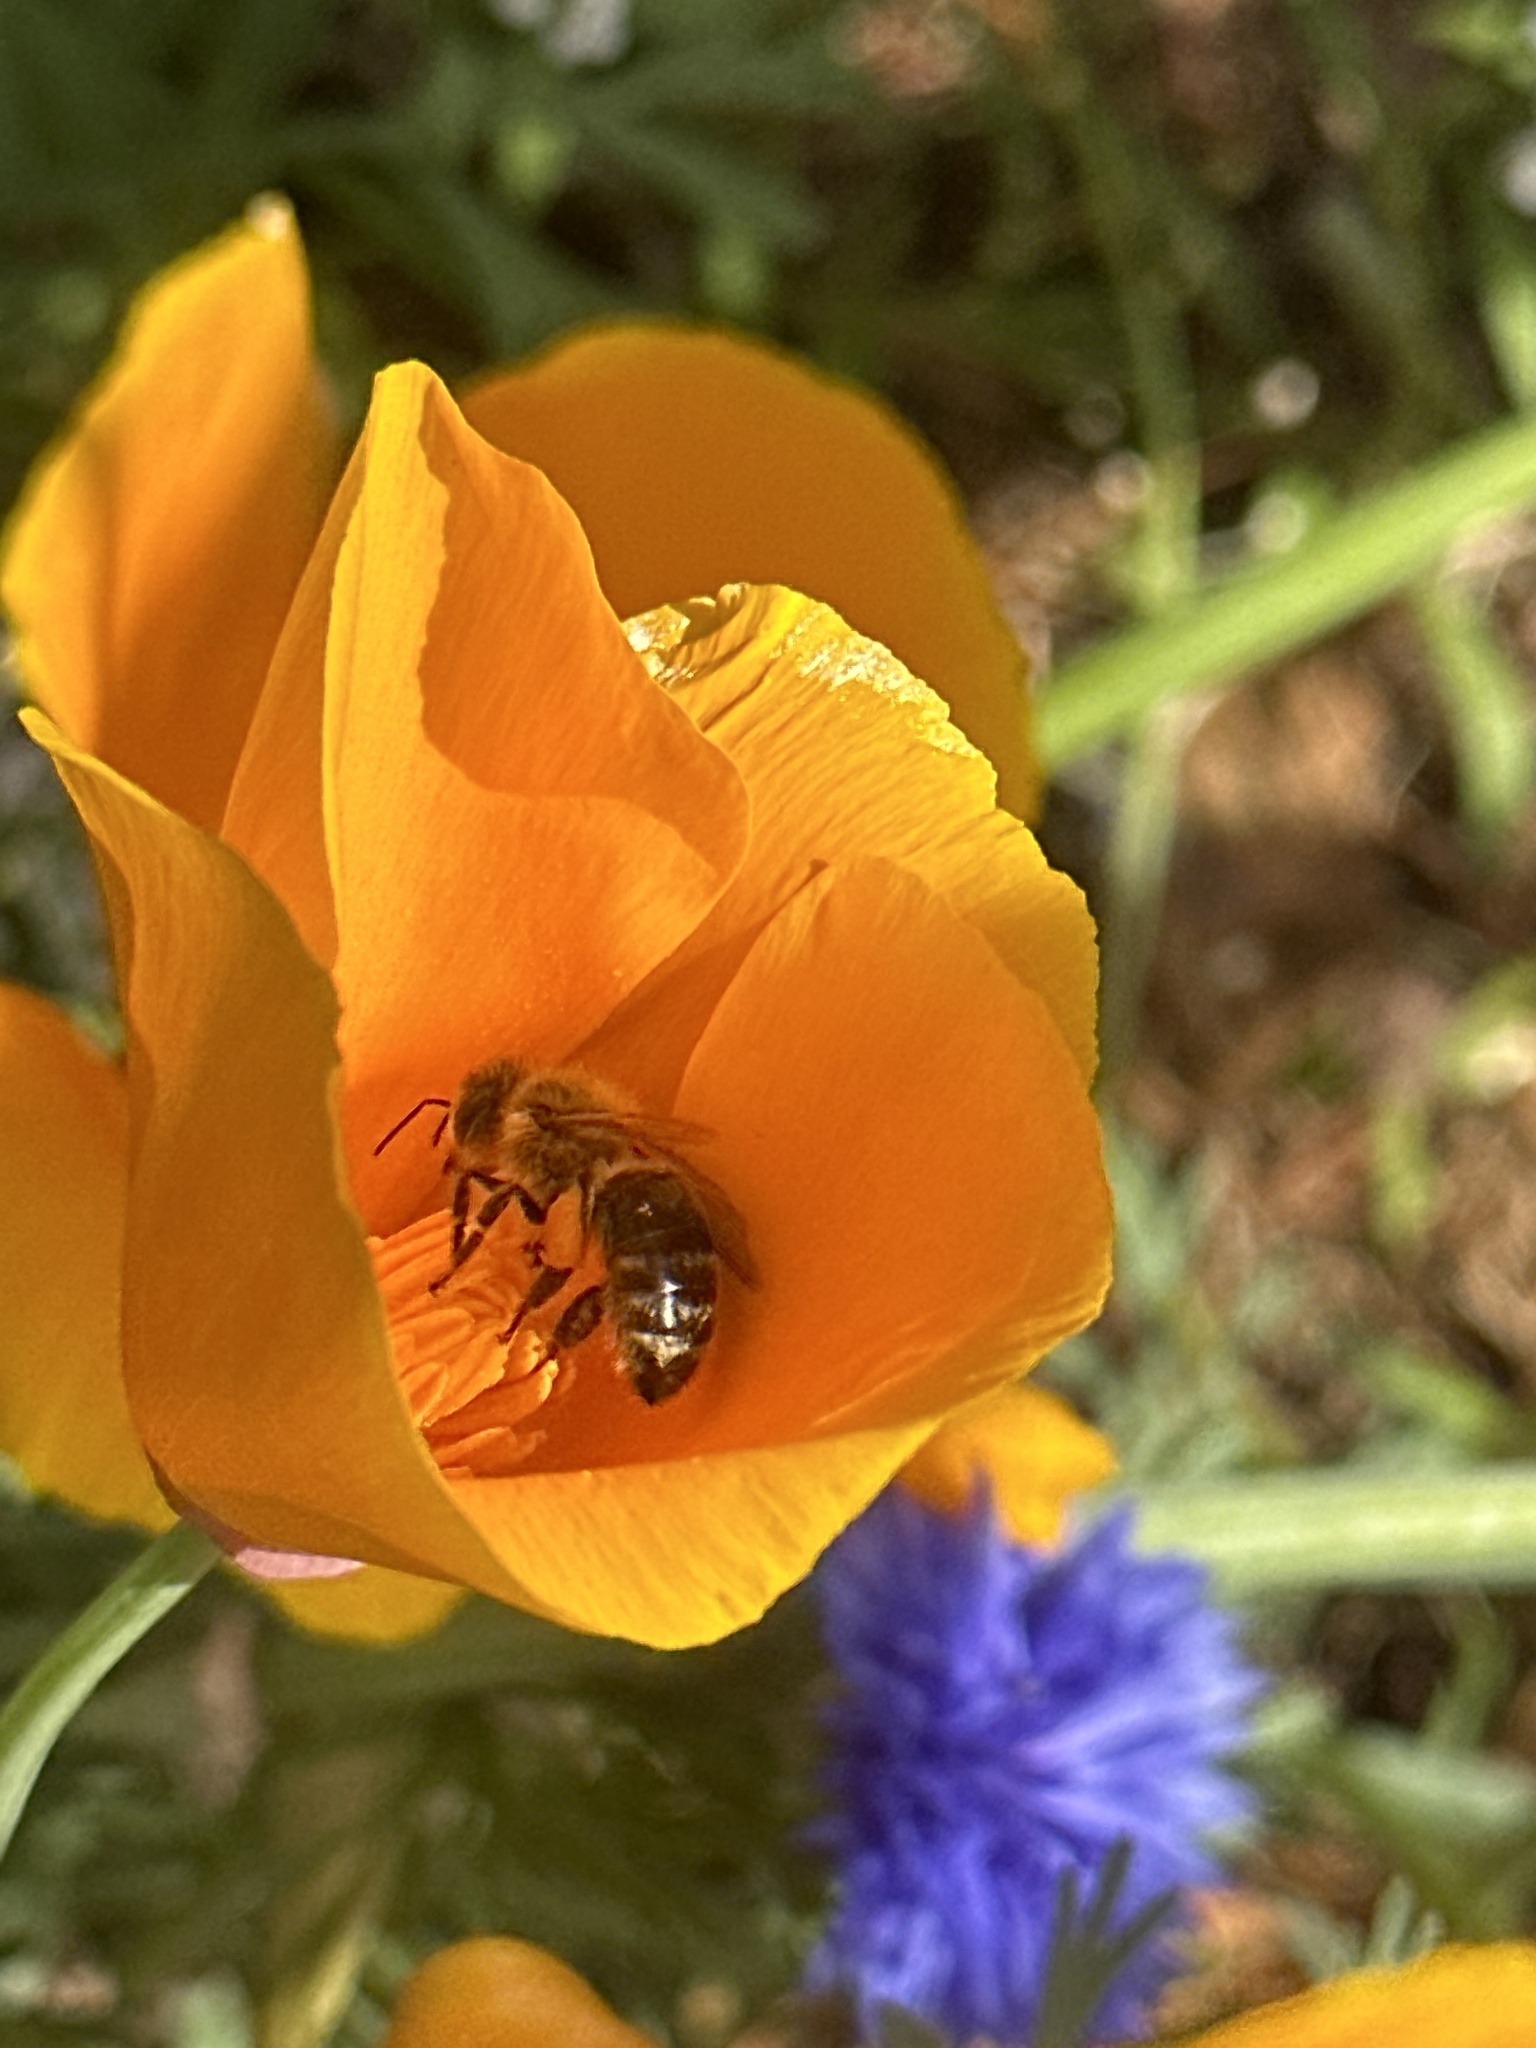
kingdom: Animalia
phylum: Arthropoda
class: Insecta
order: Hymenoptera
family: Apidae
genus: Apis
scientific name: Apis mellifera
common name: Honey bee
